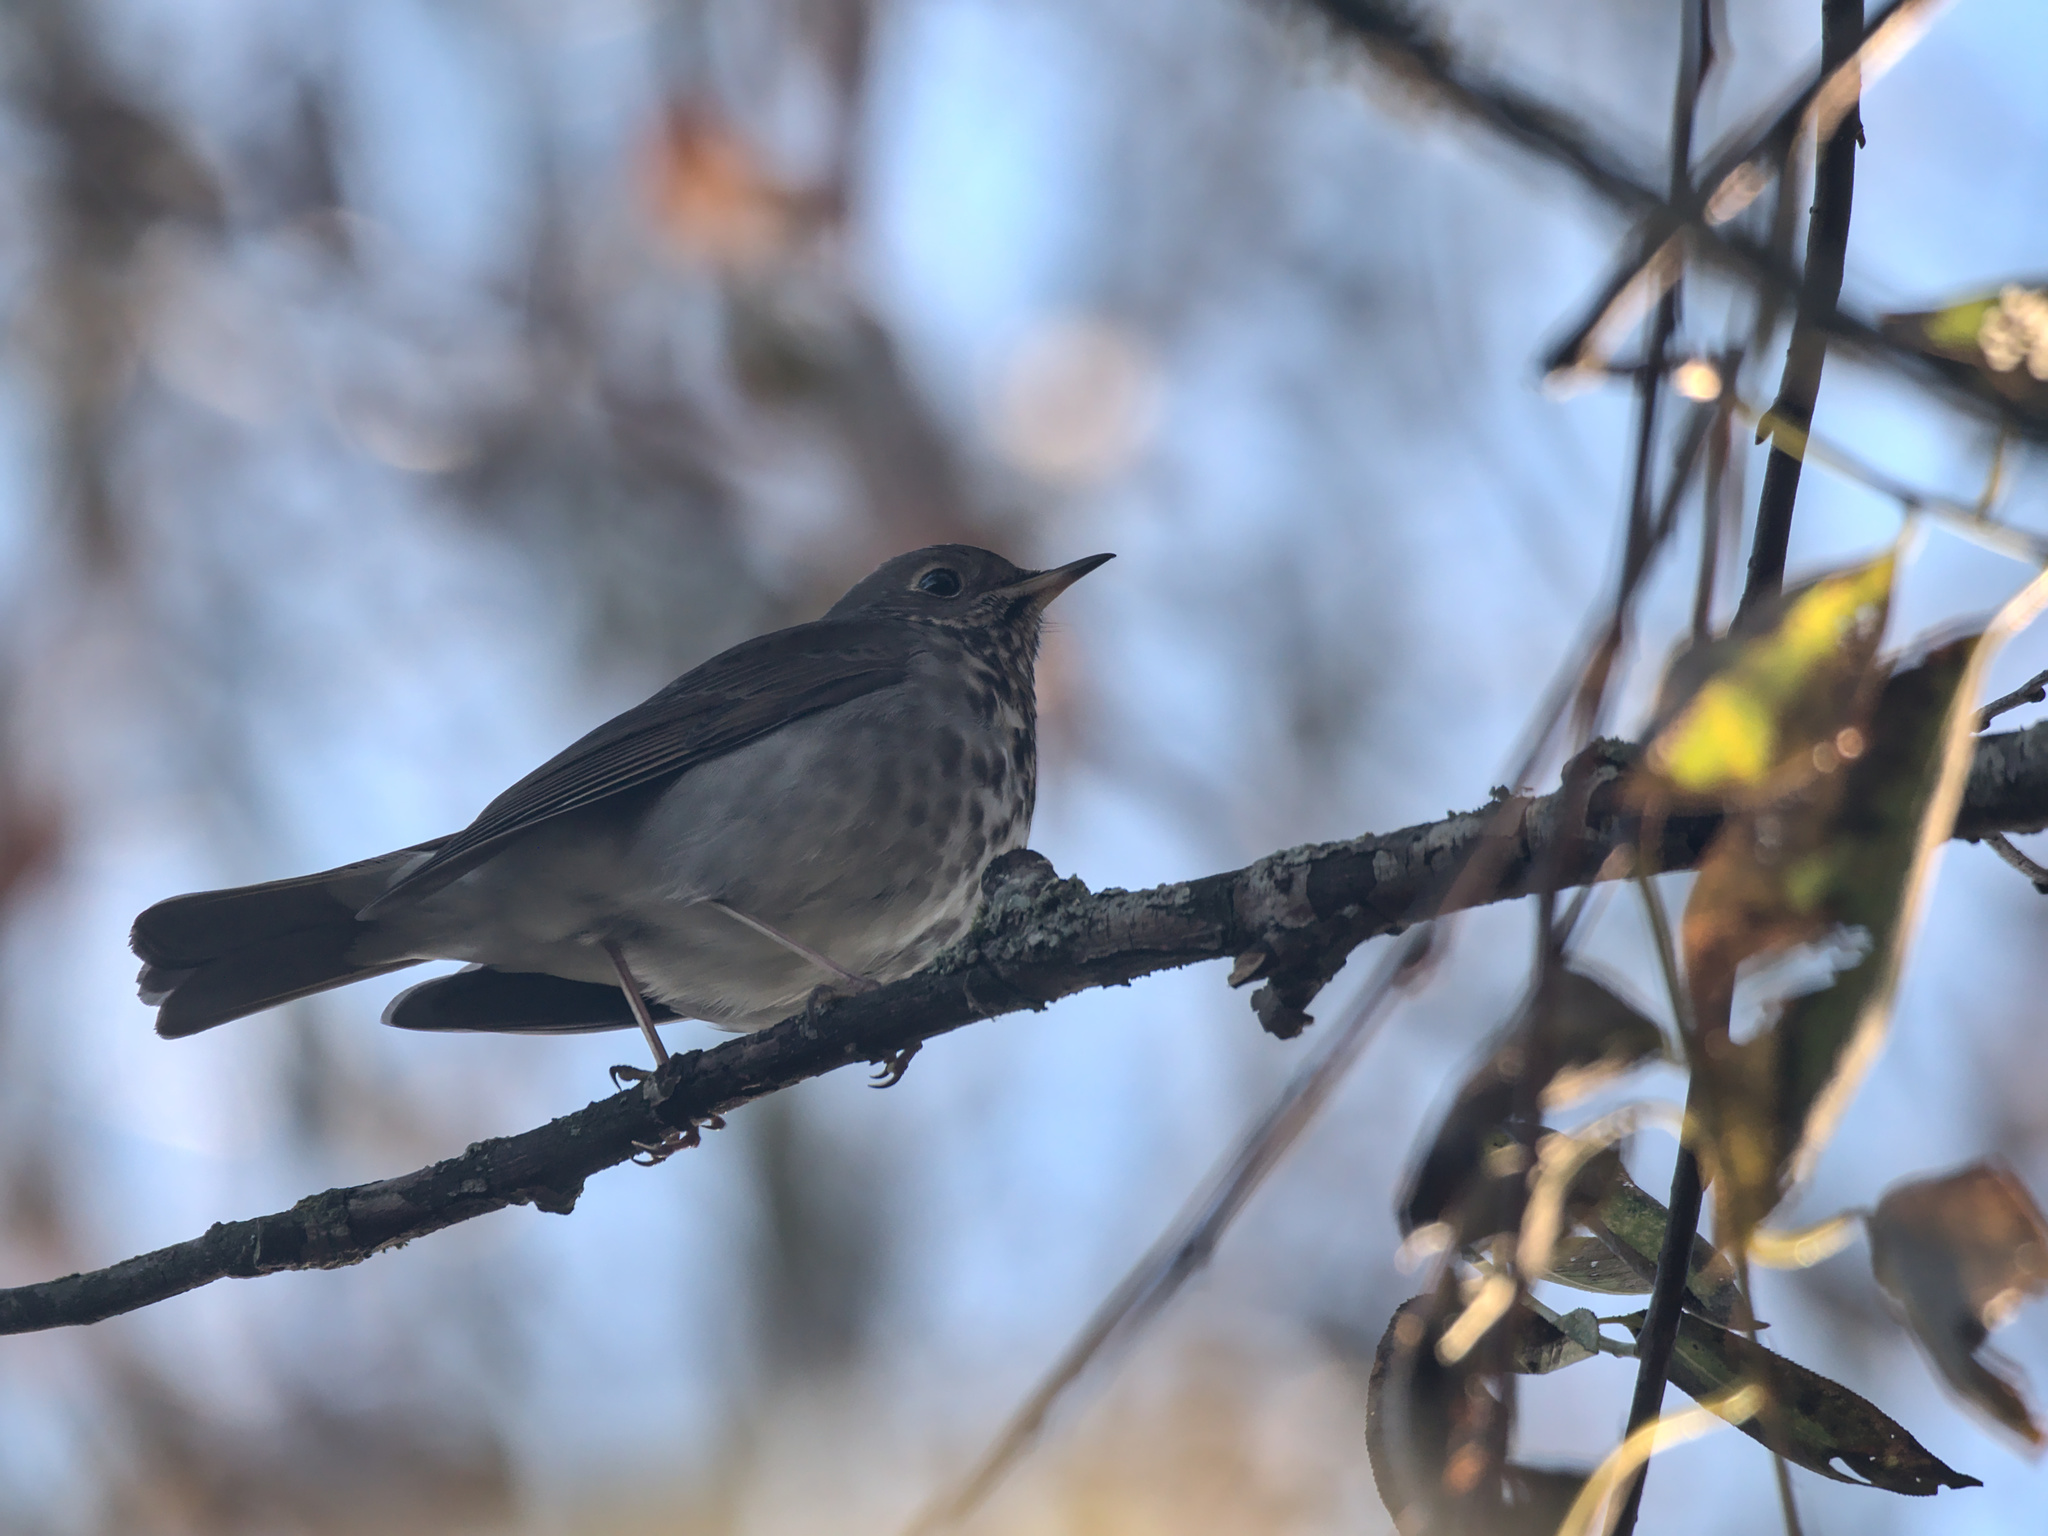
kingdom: Animalia
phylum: Chordata
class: Aves
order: Passeriformes
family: Turdidae
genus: Catharus
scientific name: Catharus guttatus
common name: Hermit thrush
